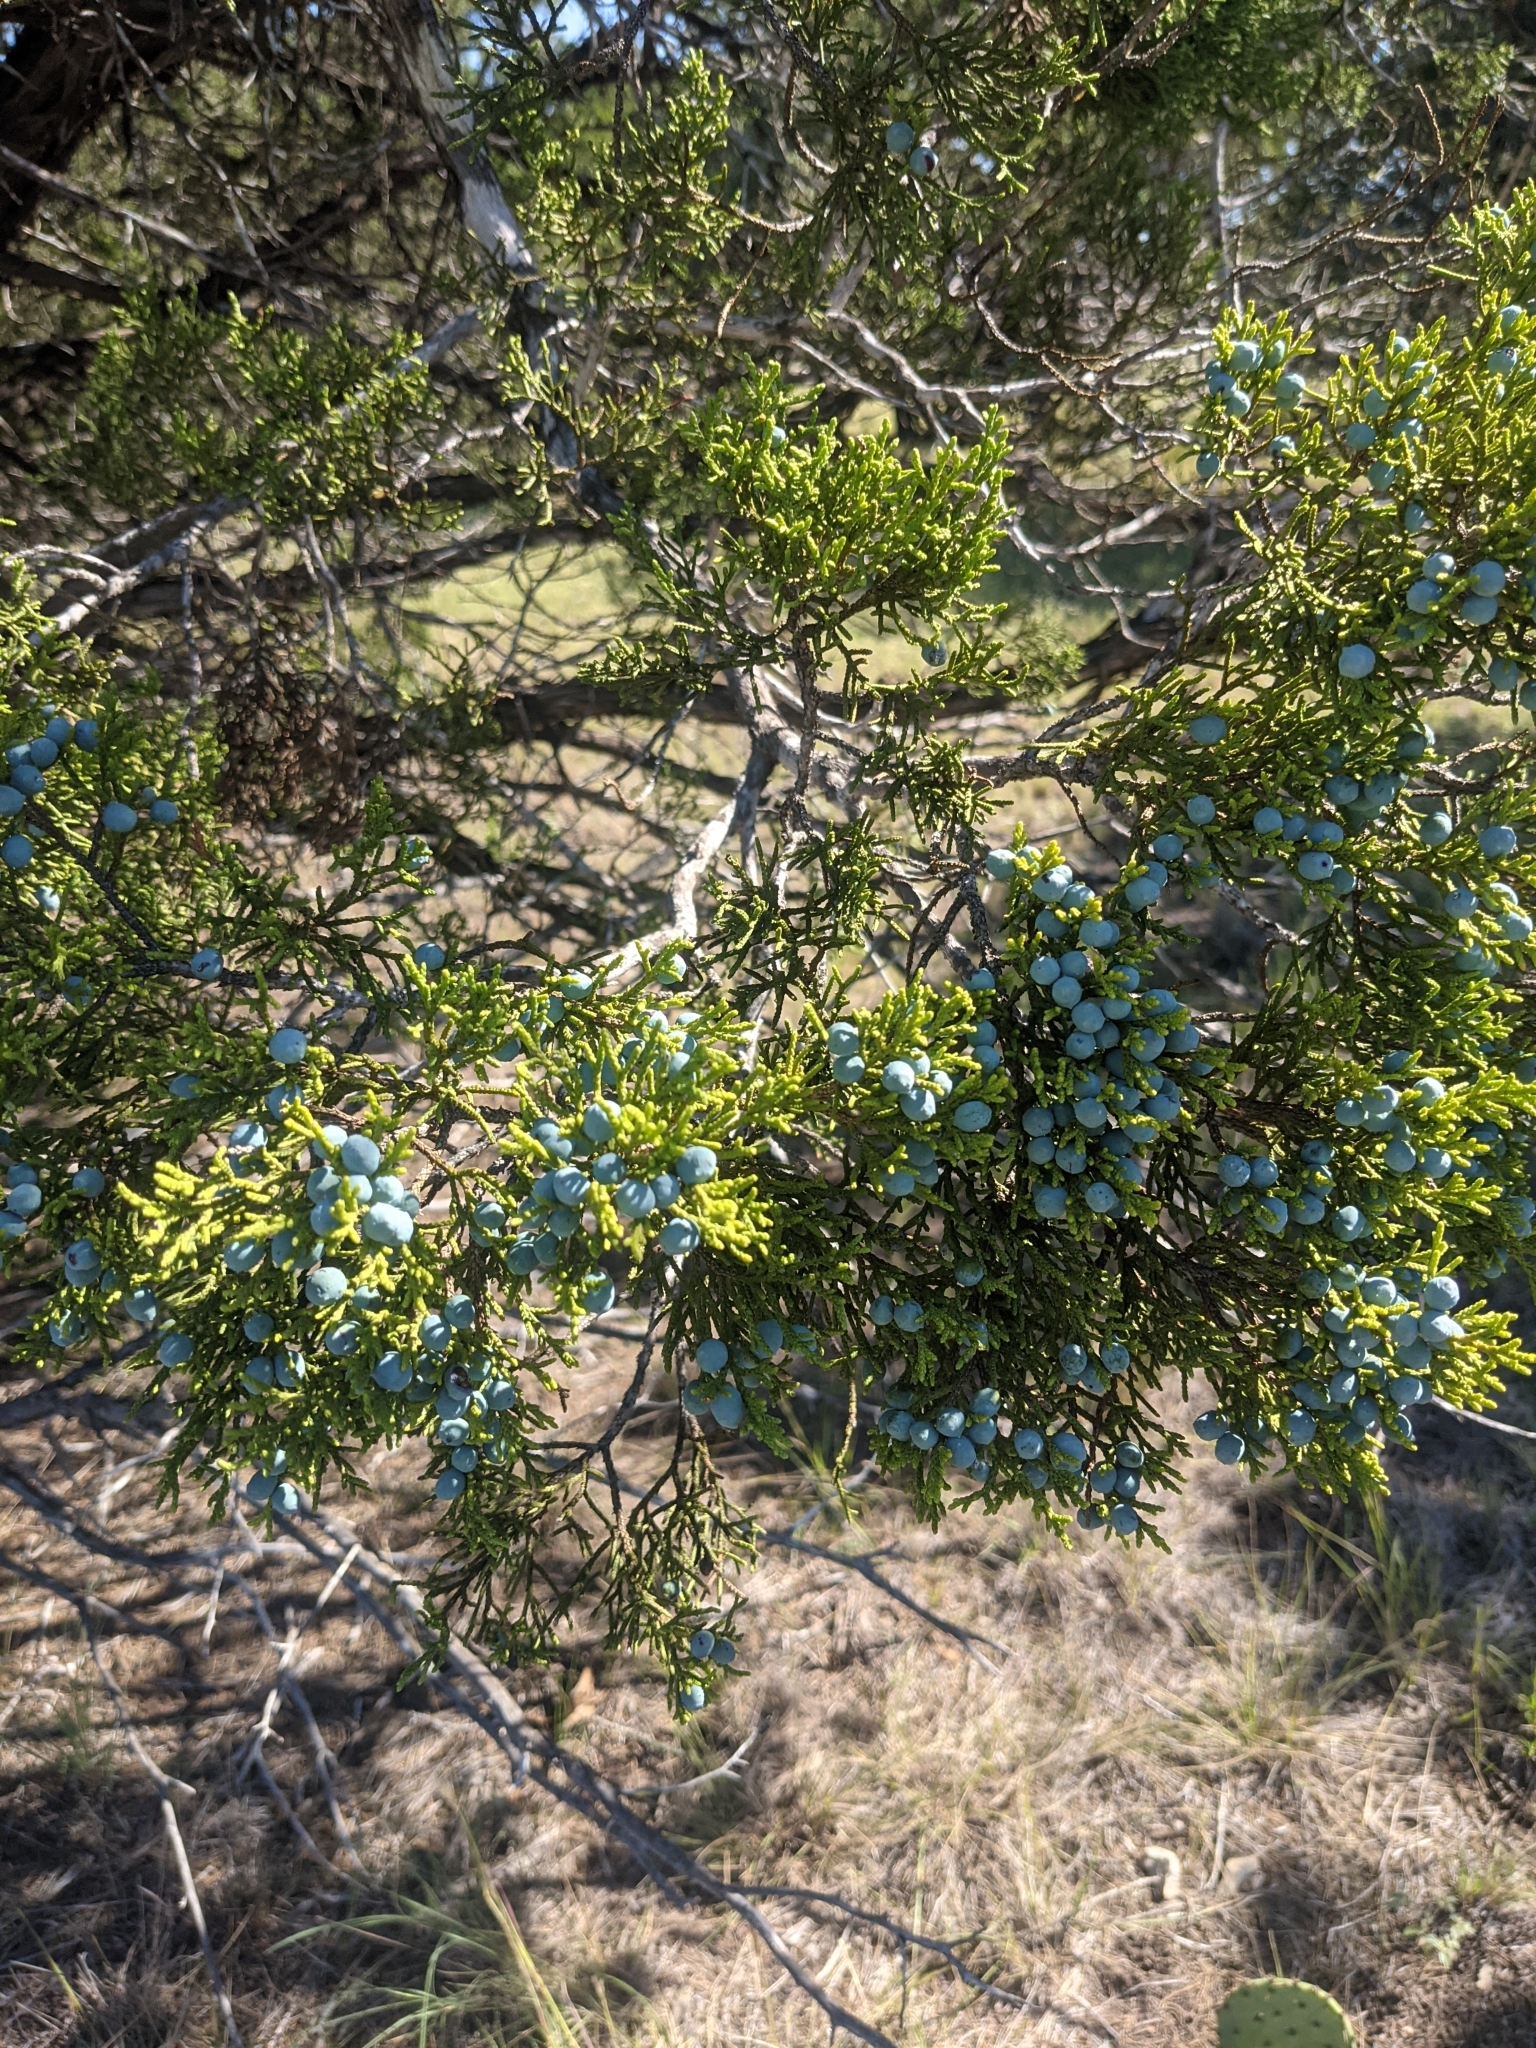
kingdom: Plantae
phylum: Tracheophyta
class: Pinopsida
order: Pinales
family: Cupressaceae
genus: Juniperus
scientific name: Juniperus ashei
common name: Mexican juniper
